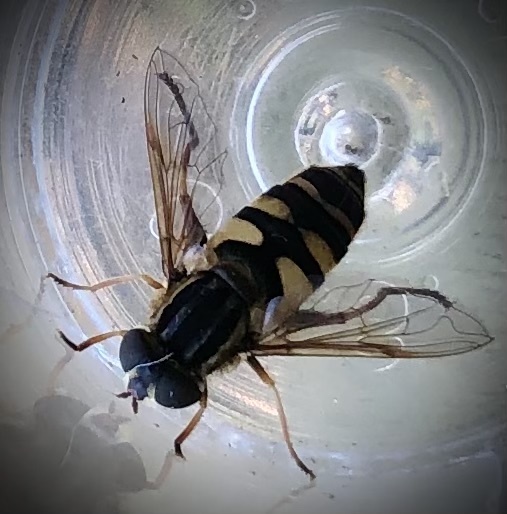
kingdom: Animalia
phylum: Arthropoda
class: Insecta
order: Diptera
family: Syrphidae
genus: Helophilus
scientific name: Helophilus fasciatus
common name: Narrow-headed marsh fly
